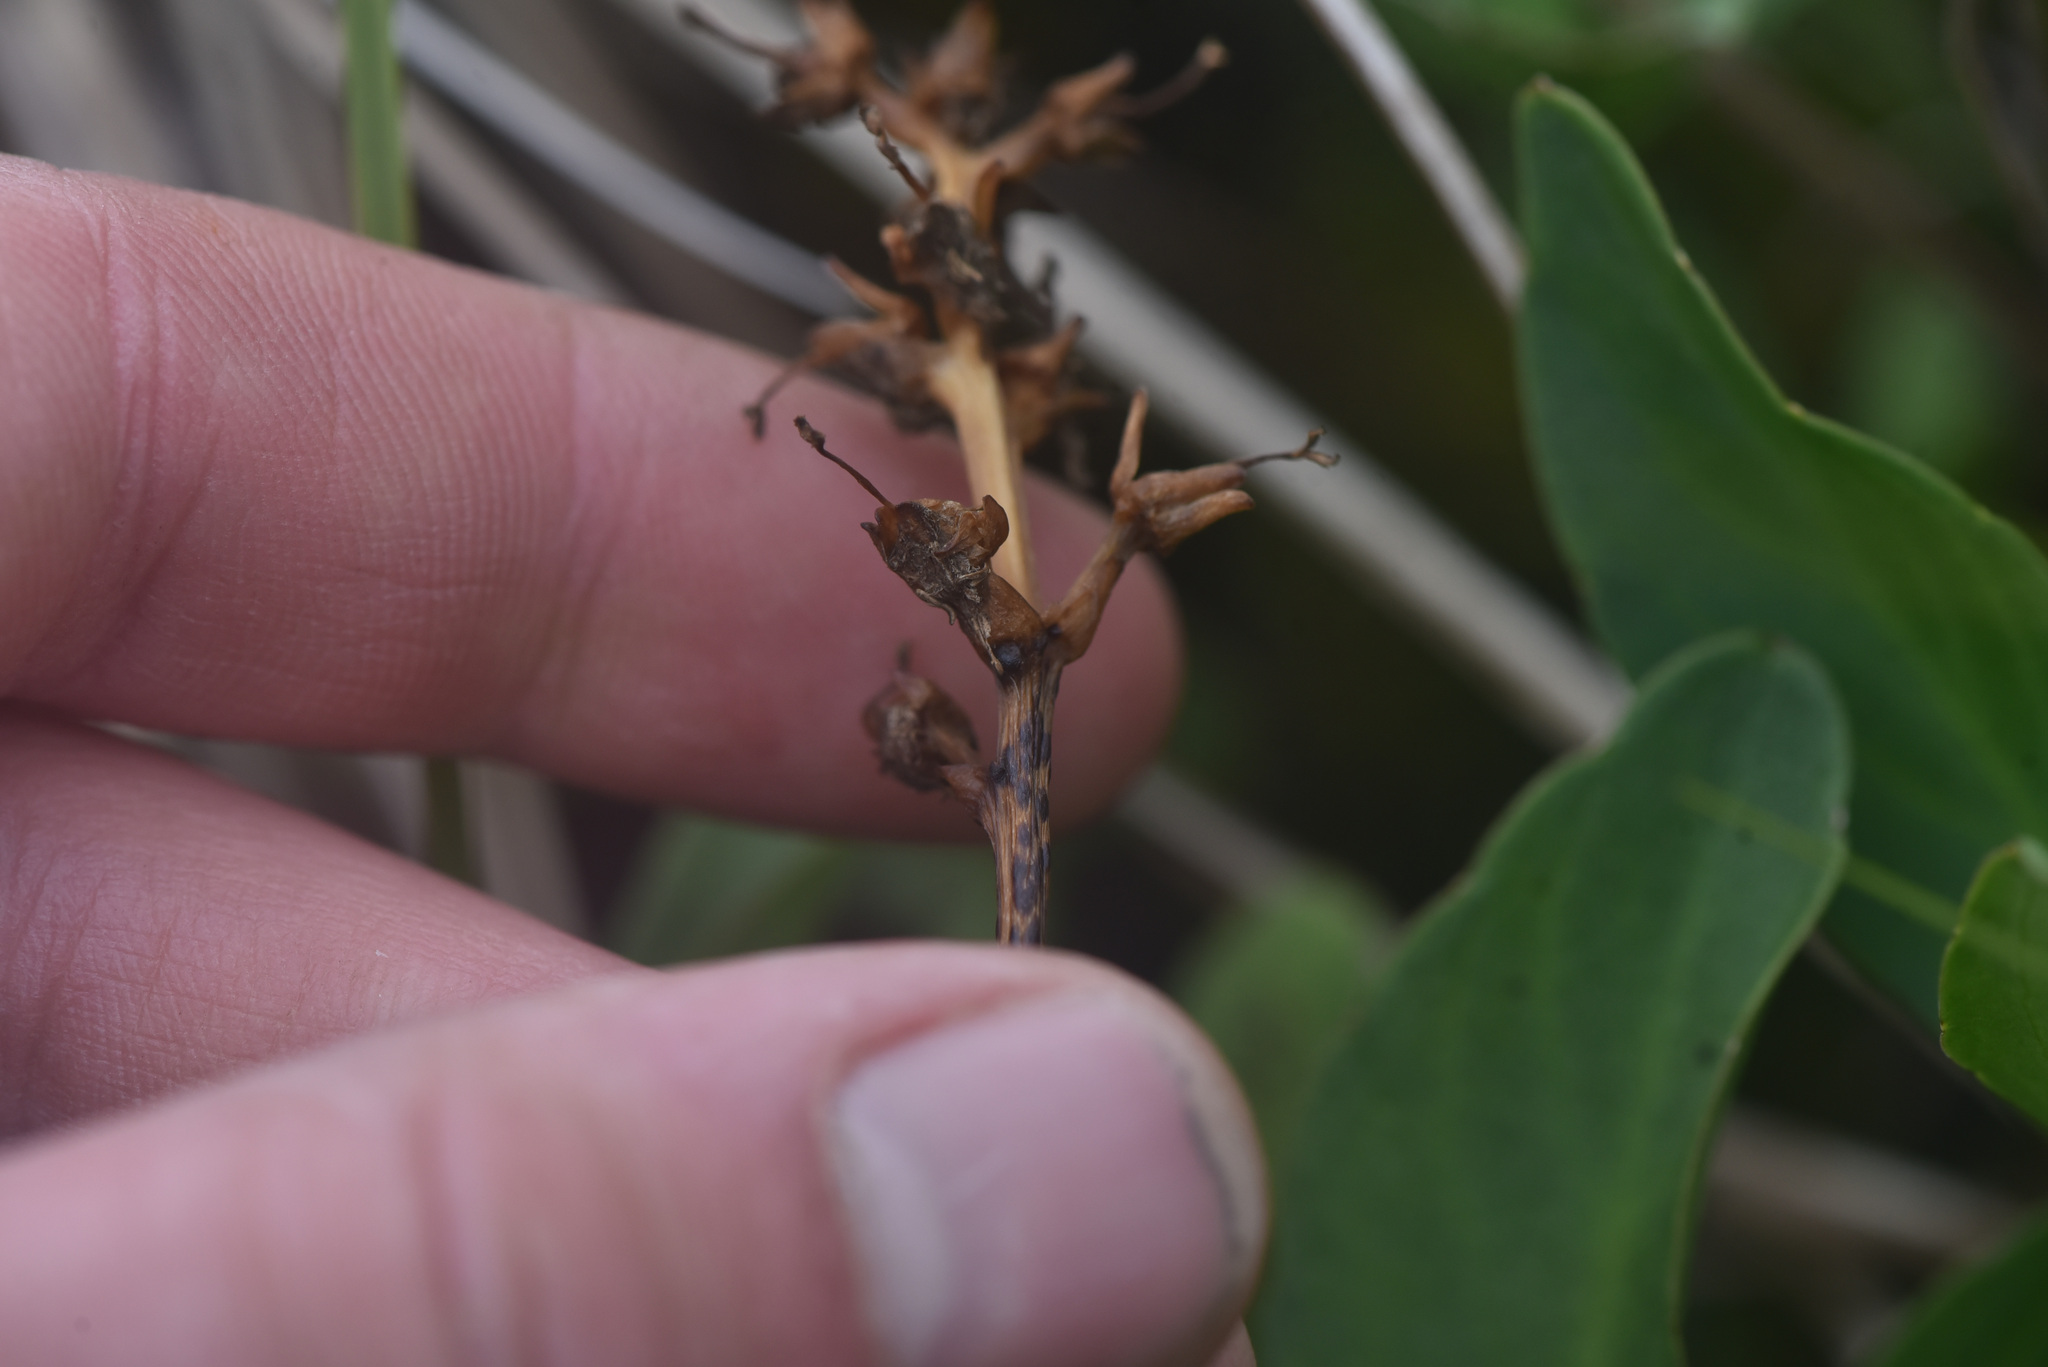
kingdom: Plantae
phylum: Tracheophyta
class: Magnoliopsida
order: Asterales
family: Menyanthaceae
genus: Menyanthes
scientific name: Menyanthes trifoliata
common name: Bogbean
